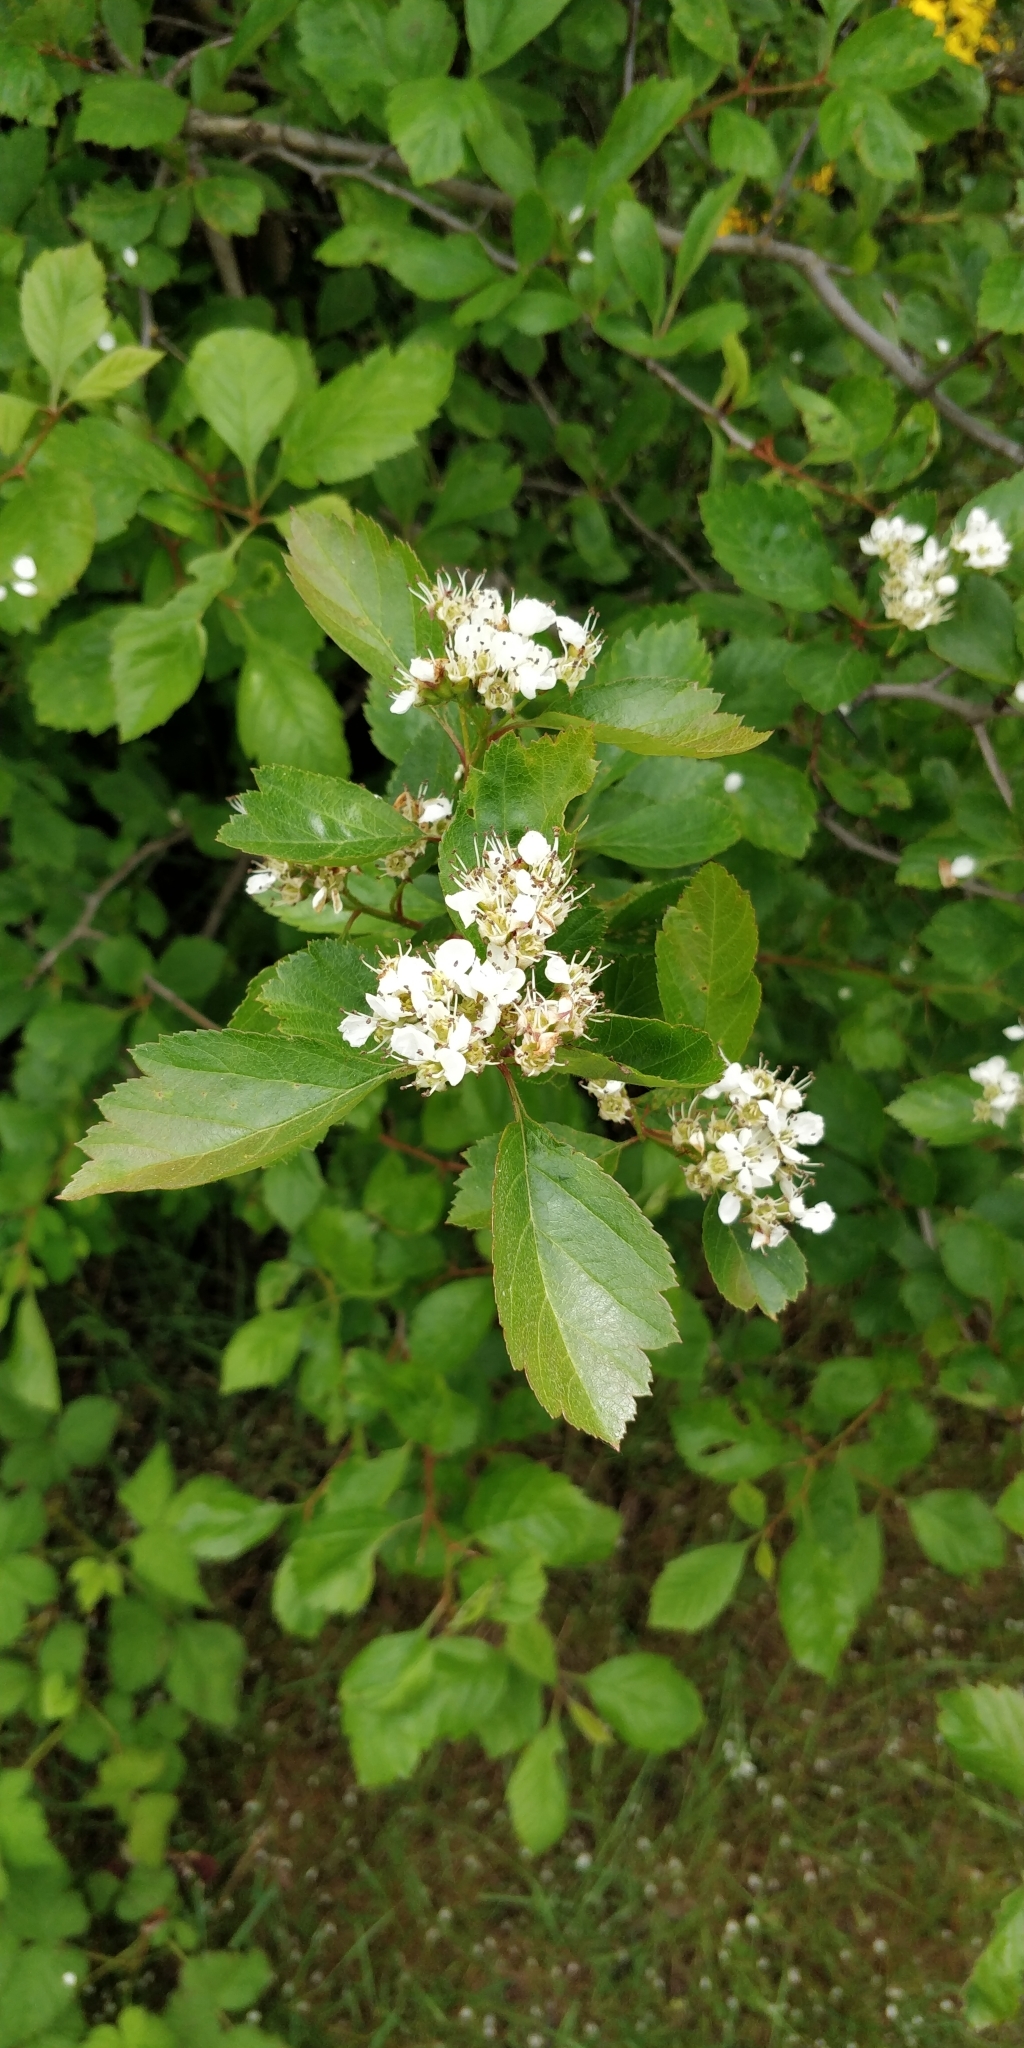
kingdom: Plantae
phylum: Tracheophyta
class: Magnoliopsida
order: Rosales
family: Rosaceae
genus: Crataegus
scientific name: Crataegus douglasii
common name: Black hawthorn
